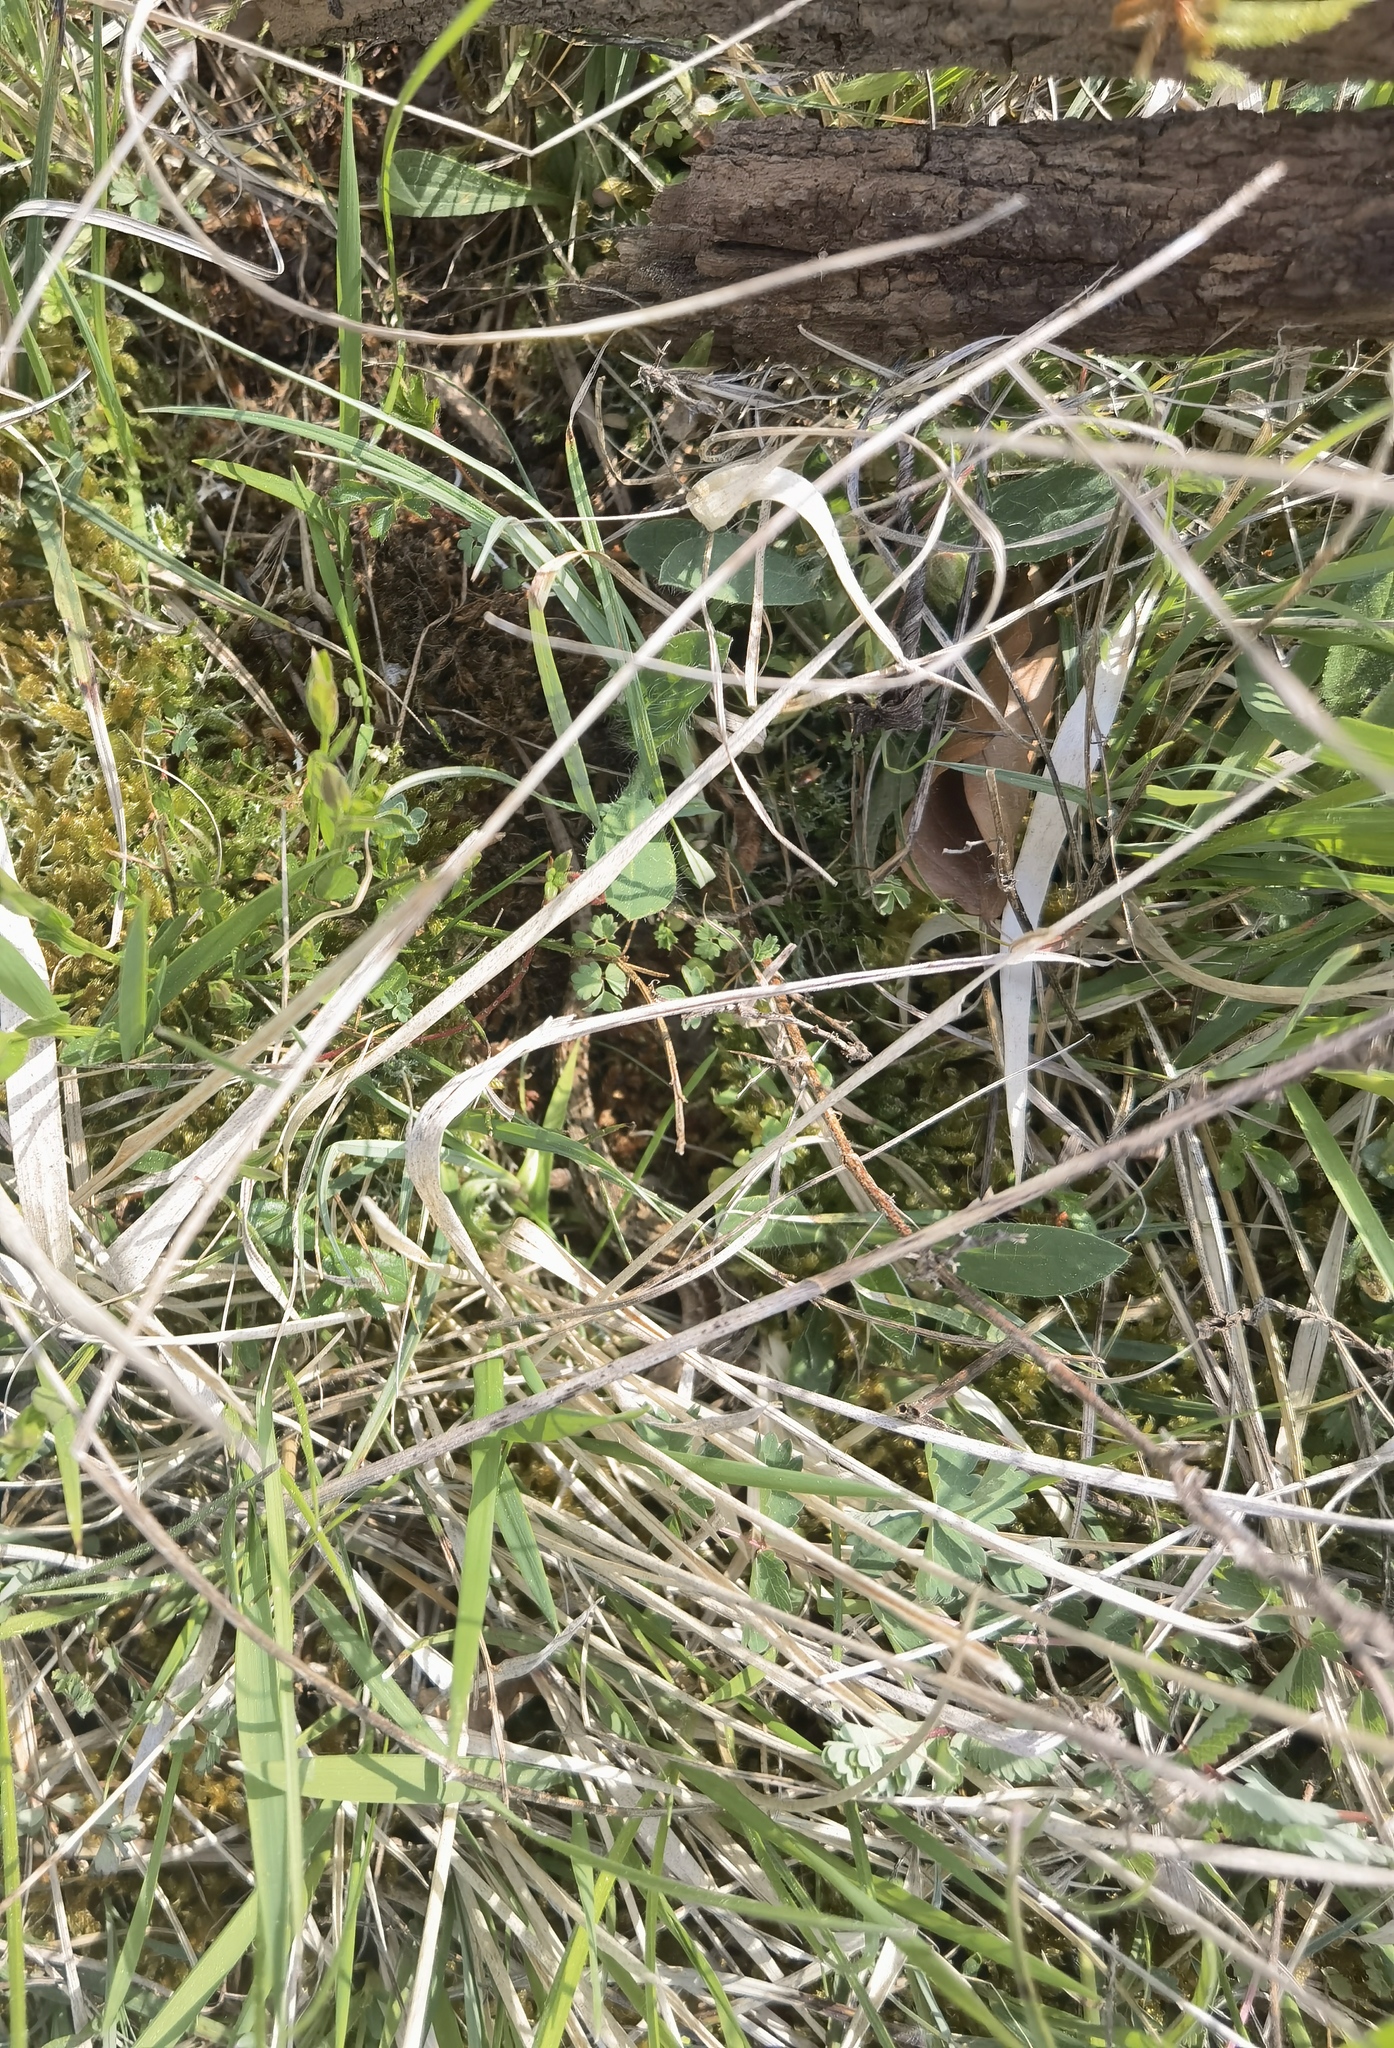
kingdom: Animalia
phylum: Chordata
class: Squamata
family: Lacertidae
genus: Podarcis
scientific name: Podarcis muralis
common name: Common wall lizard
